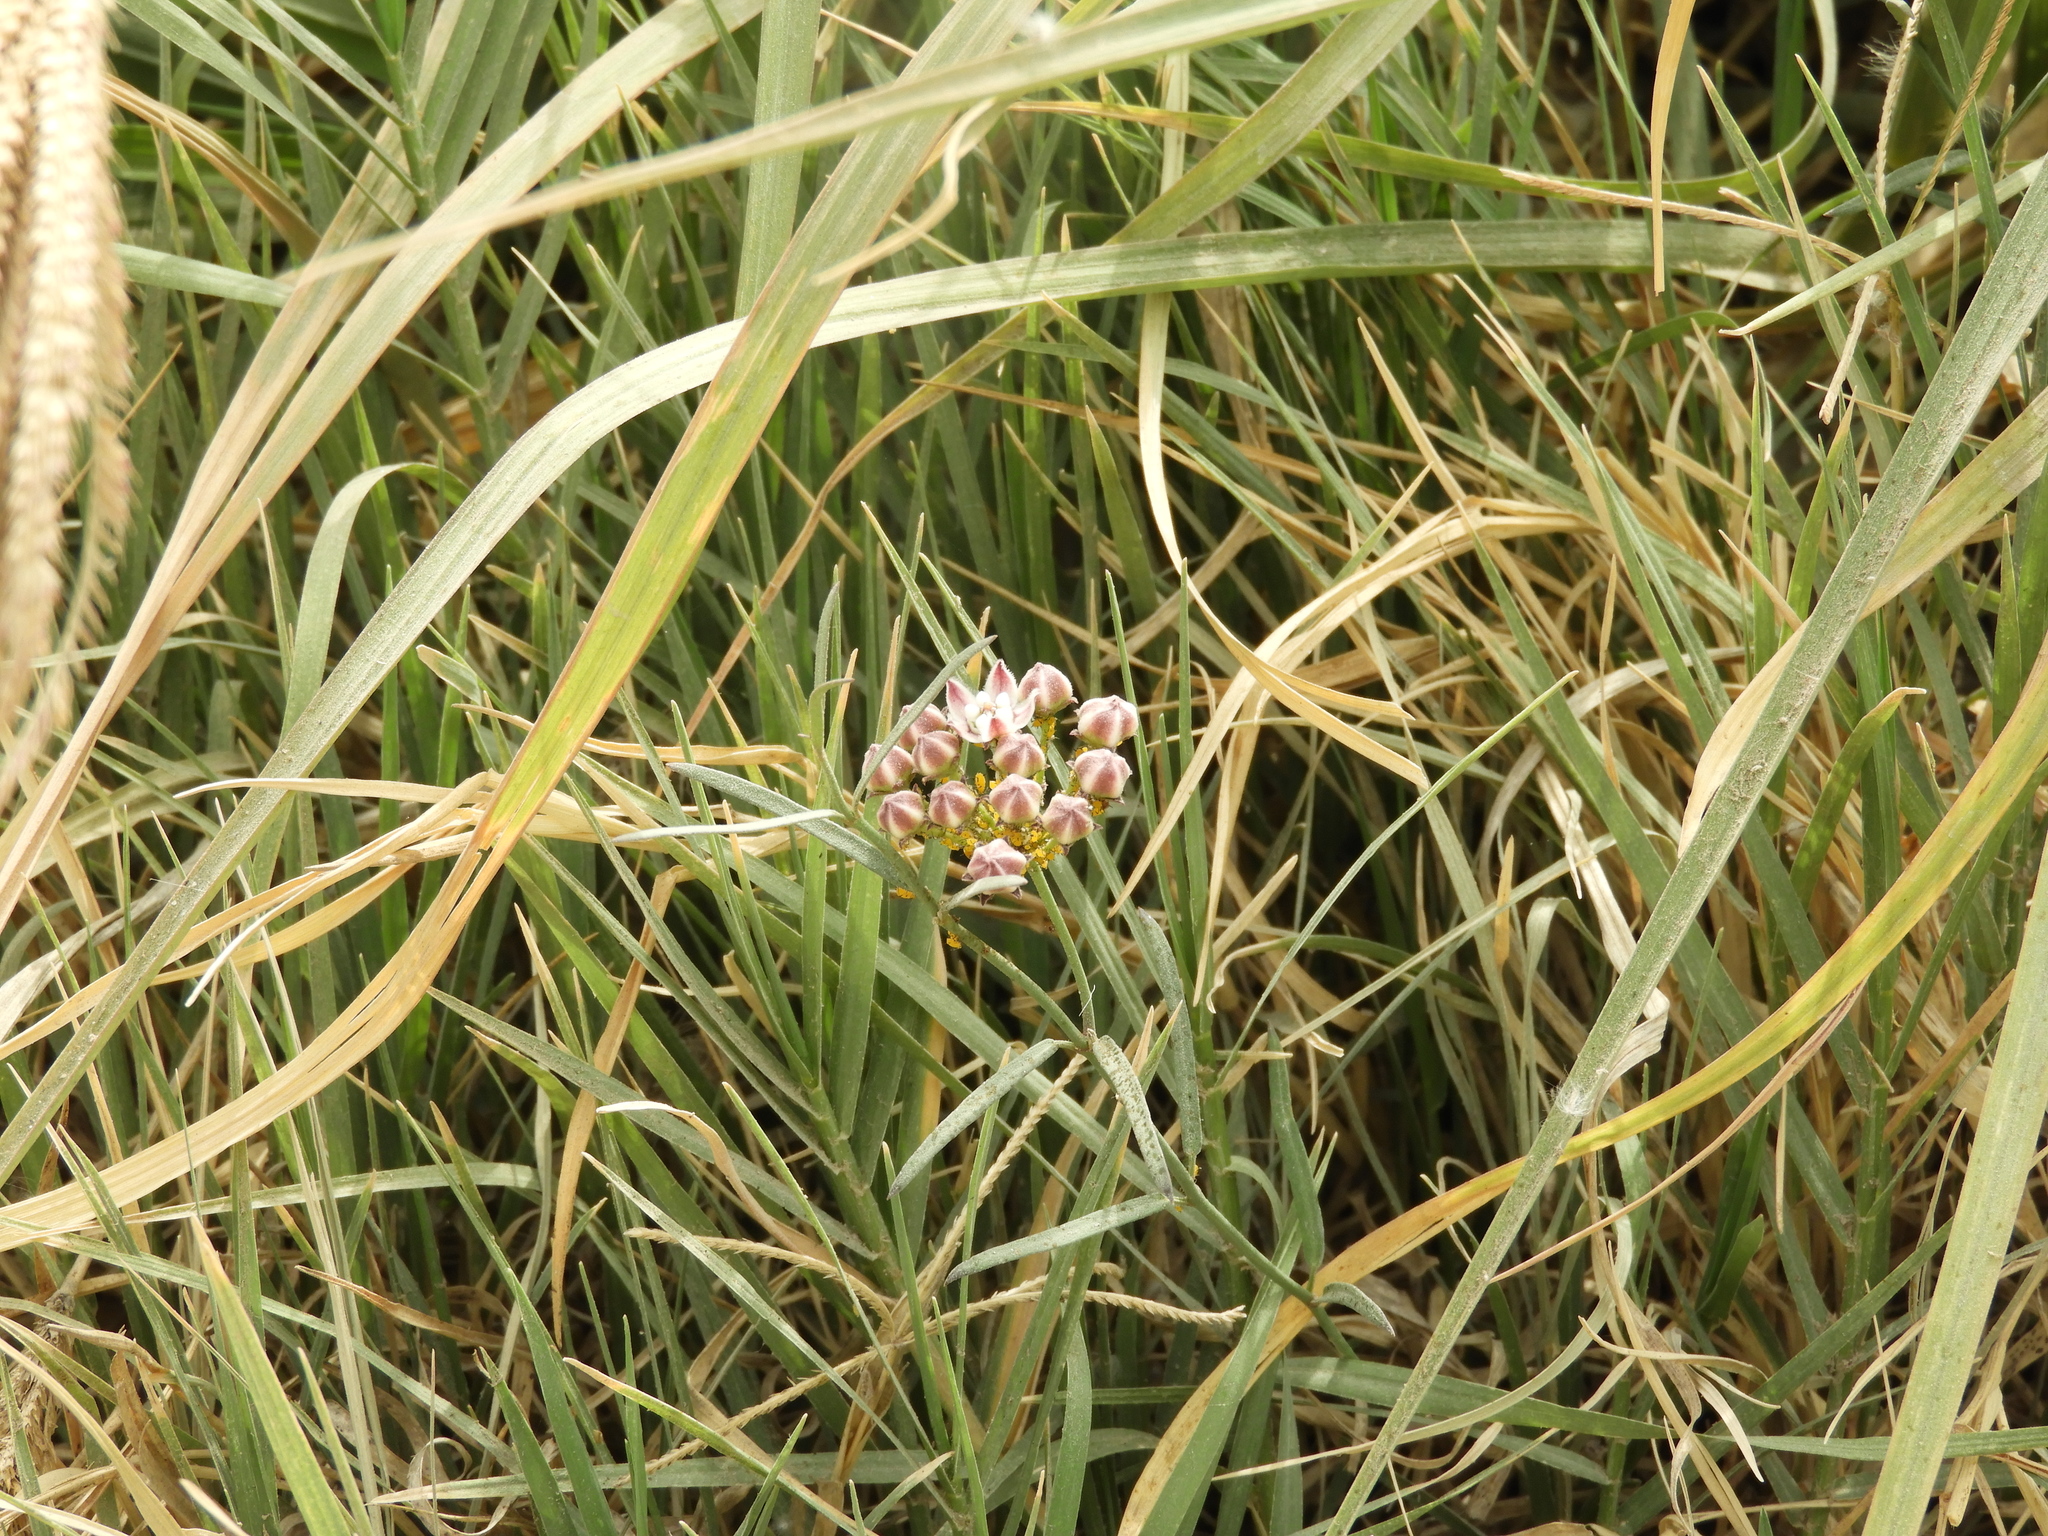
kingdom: Plantae
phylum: Tracheophyta
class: Magnoliopsida
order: Gentianales
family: Apocynaceae
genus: Funastrum
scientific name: Funastrum heterophyllum
